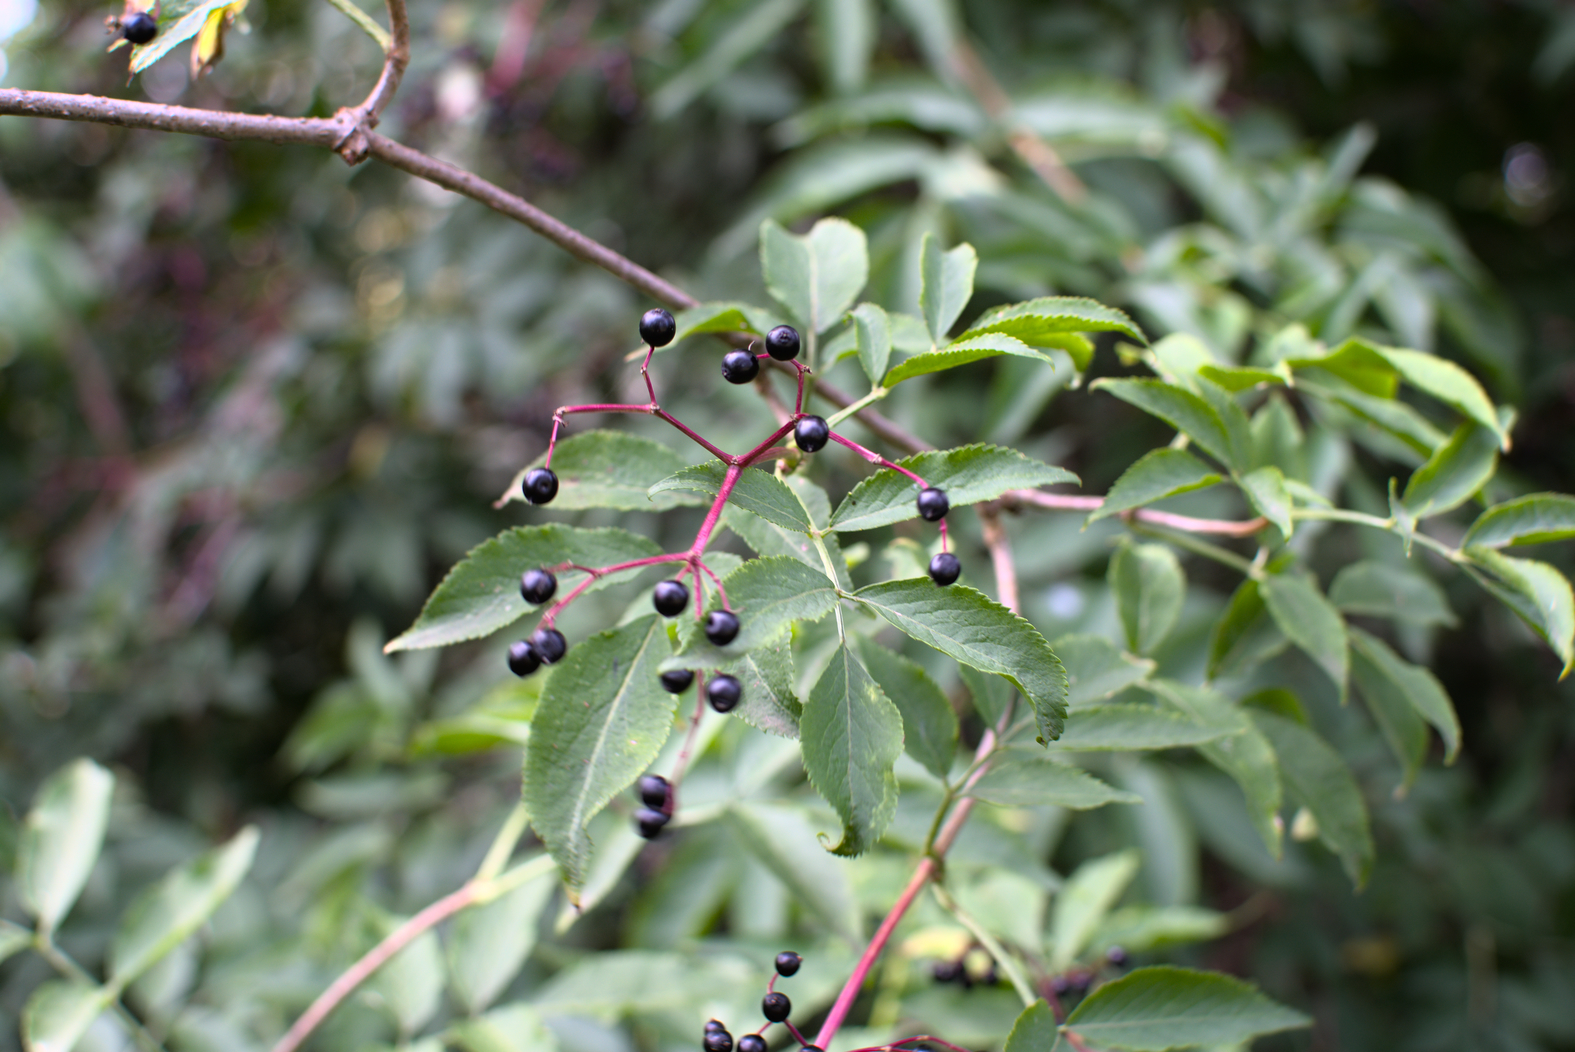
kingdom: Plantae
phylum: Tracheophyta
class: Magnoliopsida
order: Dipsacales
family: Viburnaceae
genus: Sambucus
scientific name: Sambucus nigra
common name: Elder
